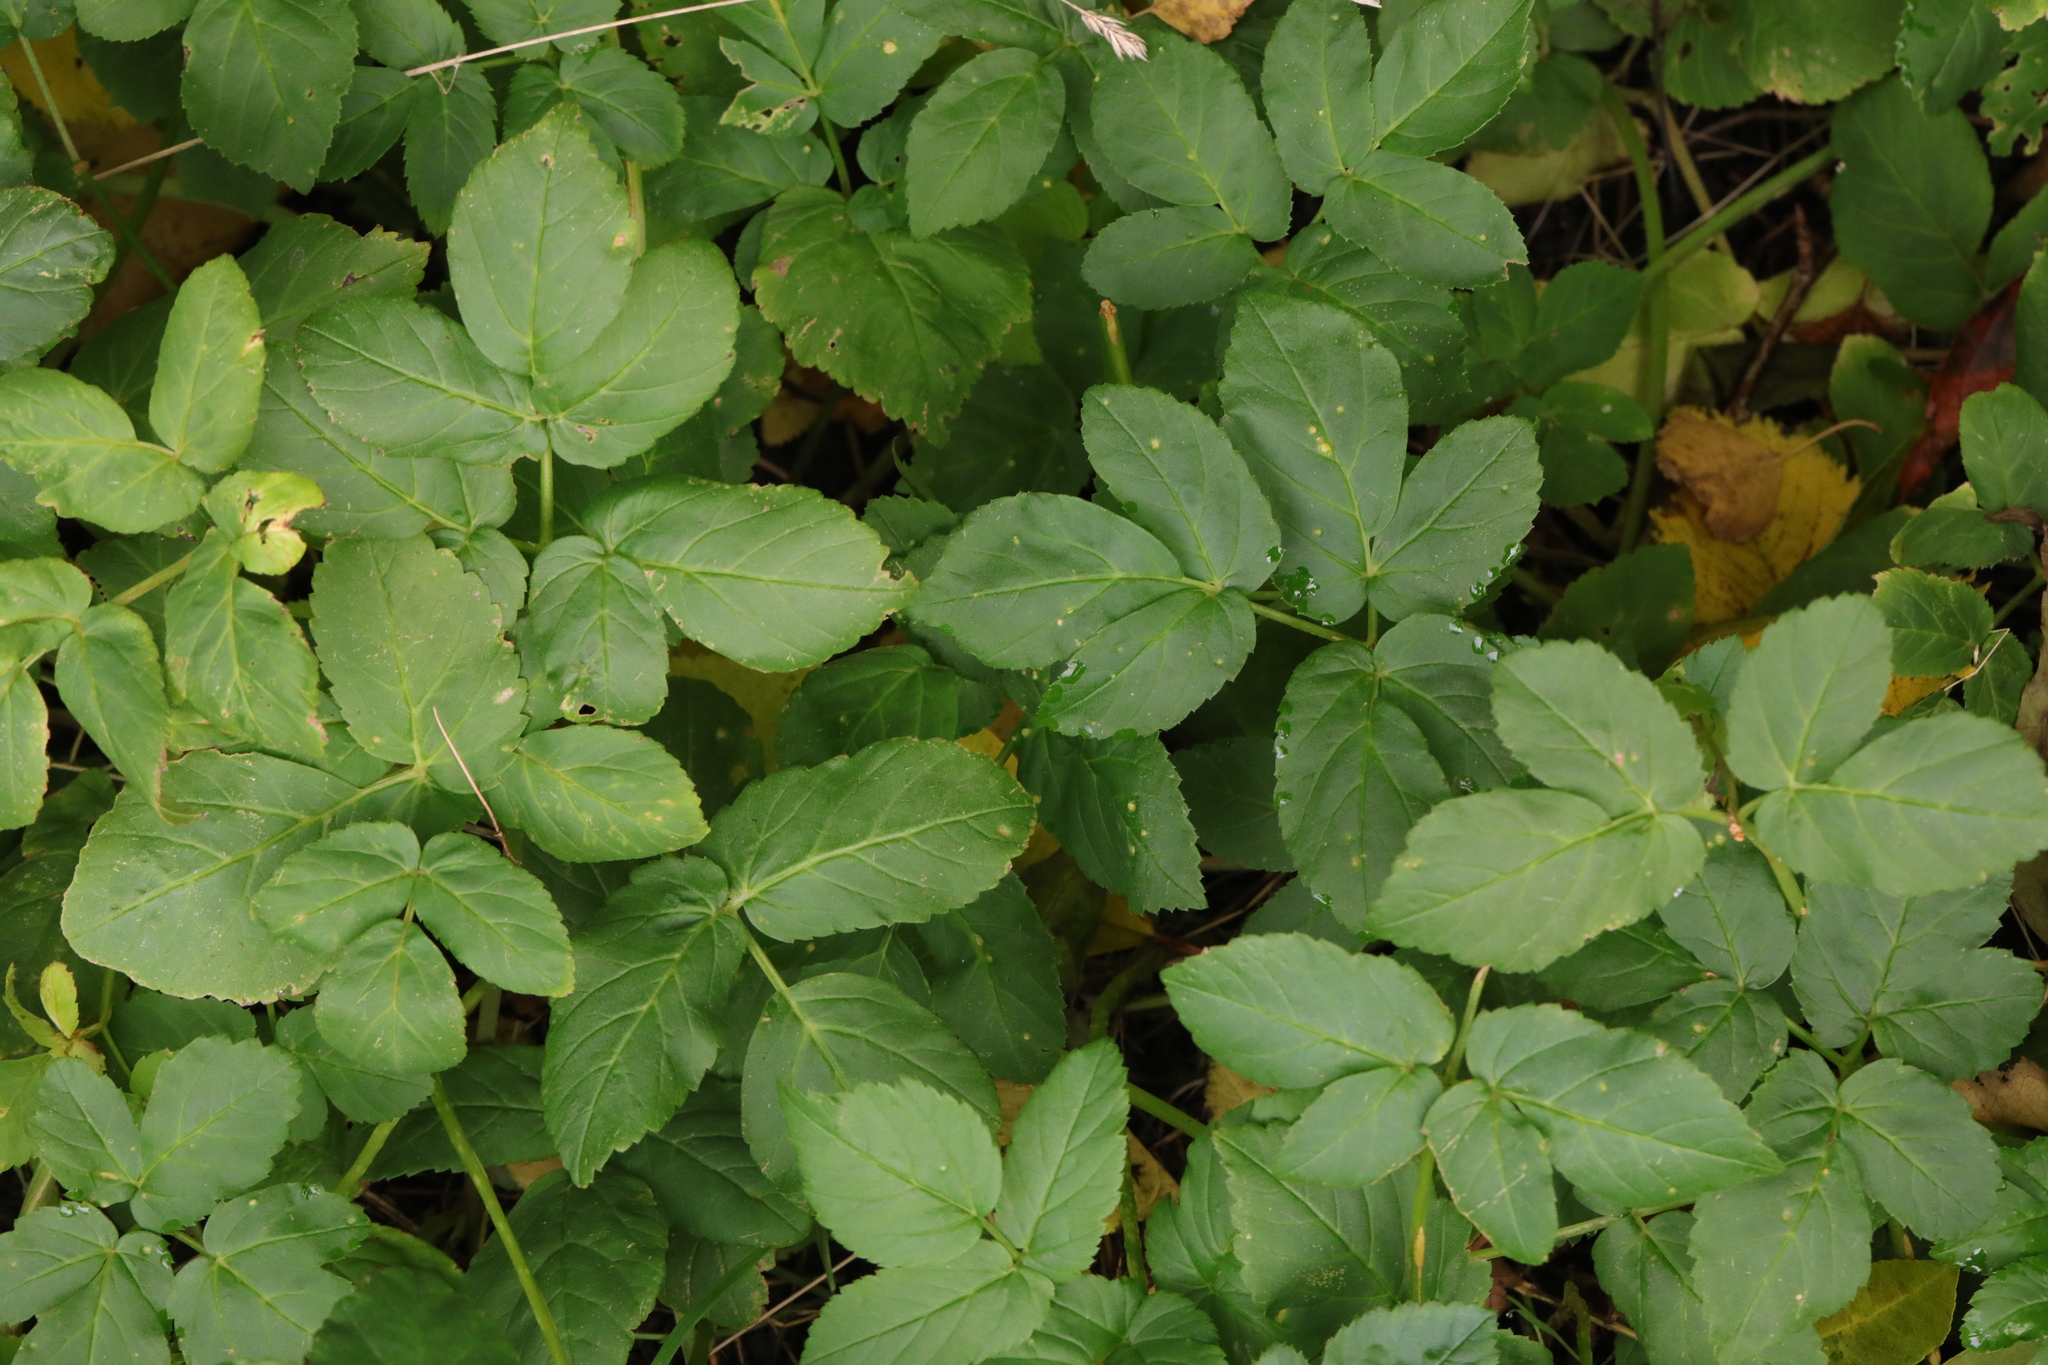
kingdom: Plantae
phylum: Tracheophyta
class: Magnoliopsida
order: Apiales
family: Apiaceae
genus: Aegopodium
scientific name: Aegopodium podagraria
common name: Ground-elder
